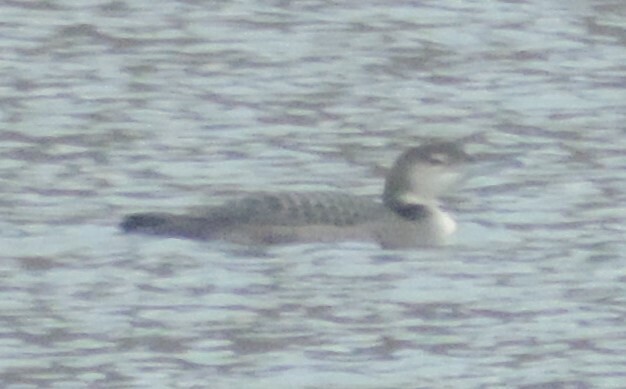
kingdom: Animalia
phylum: Chordata
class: Aves
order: Gaviiformes
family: Gaviidae
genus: Gavia
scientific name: Gavia immer
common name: Common loon
